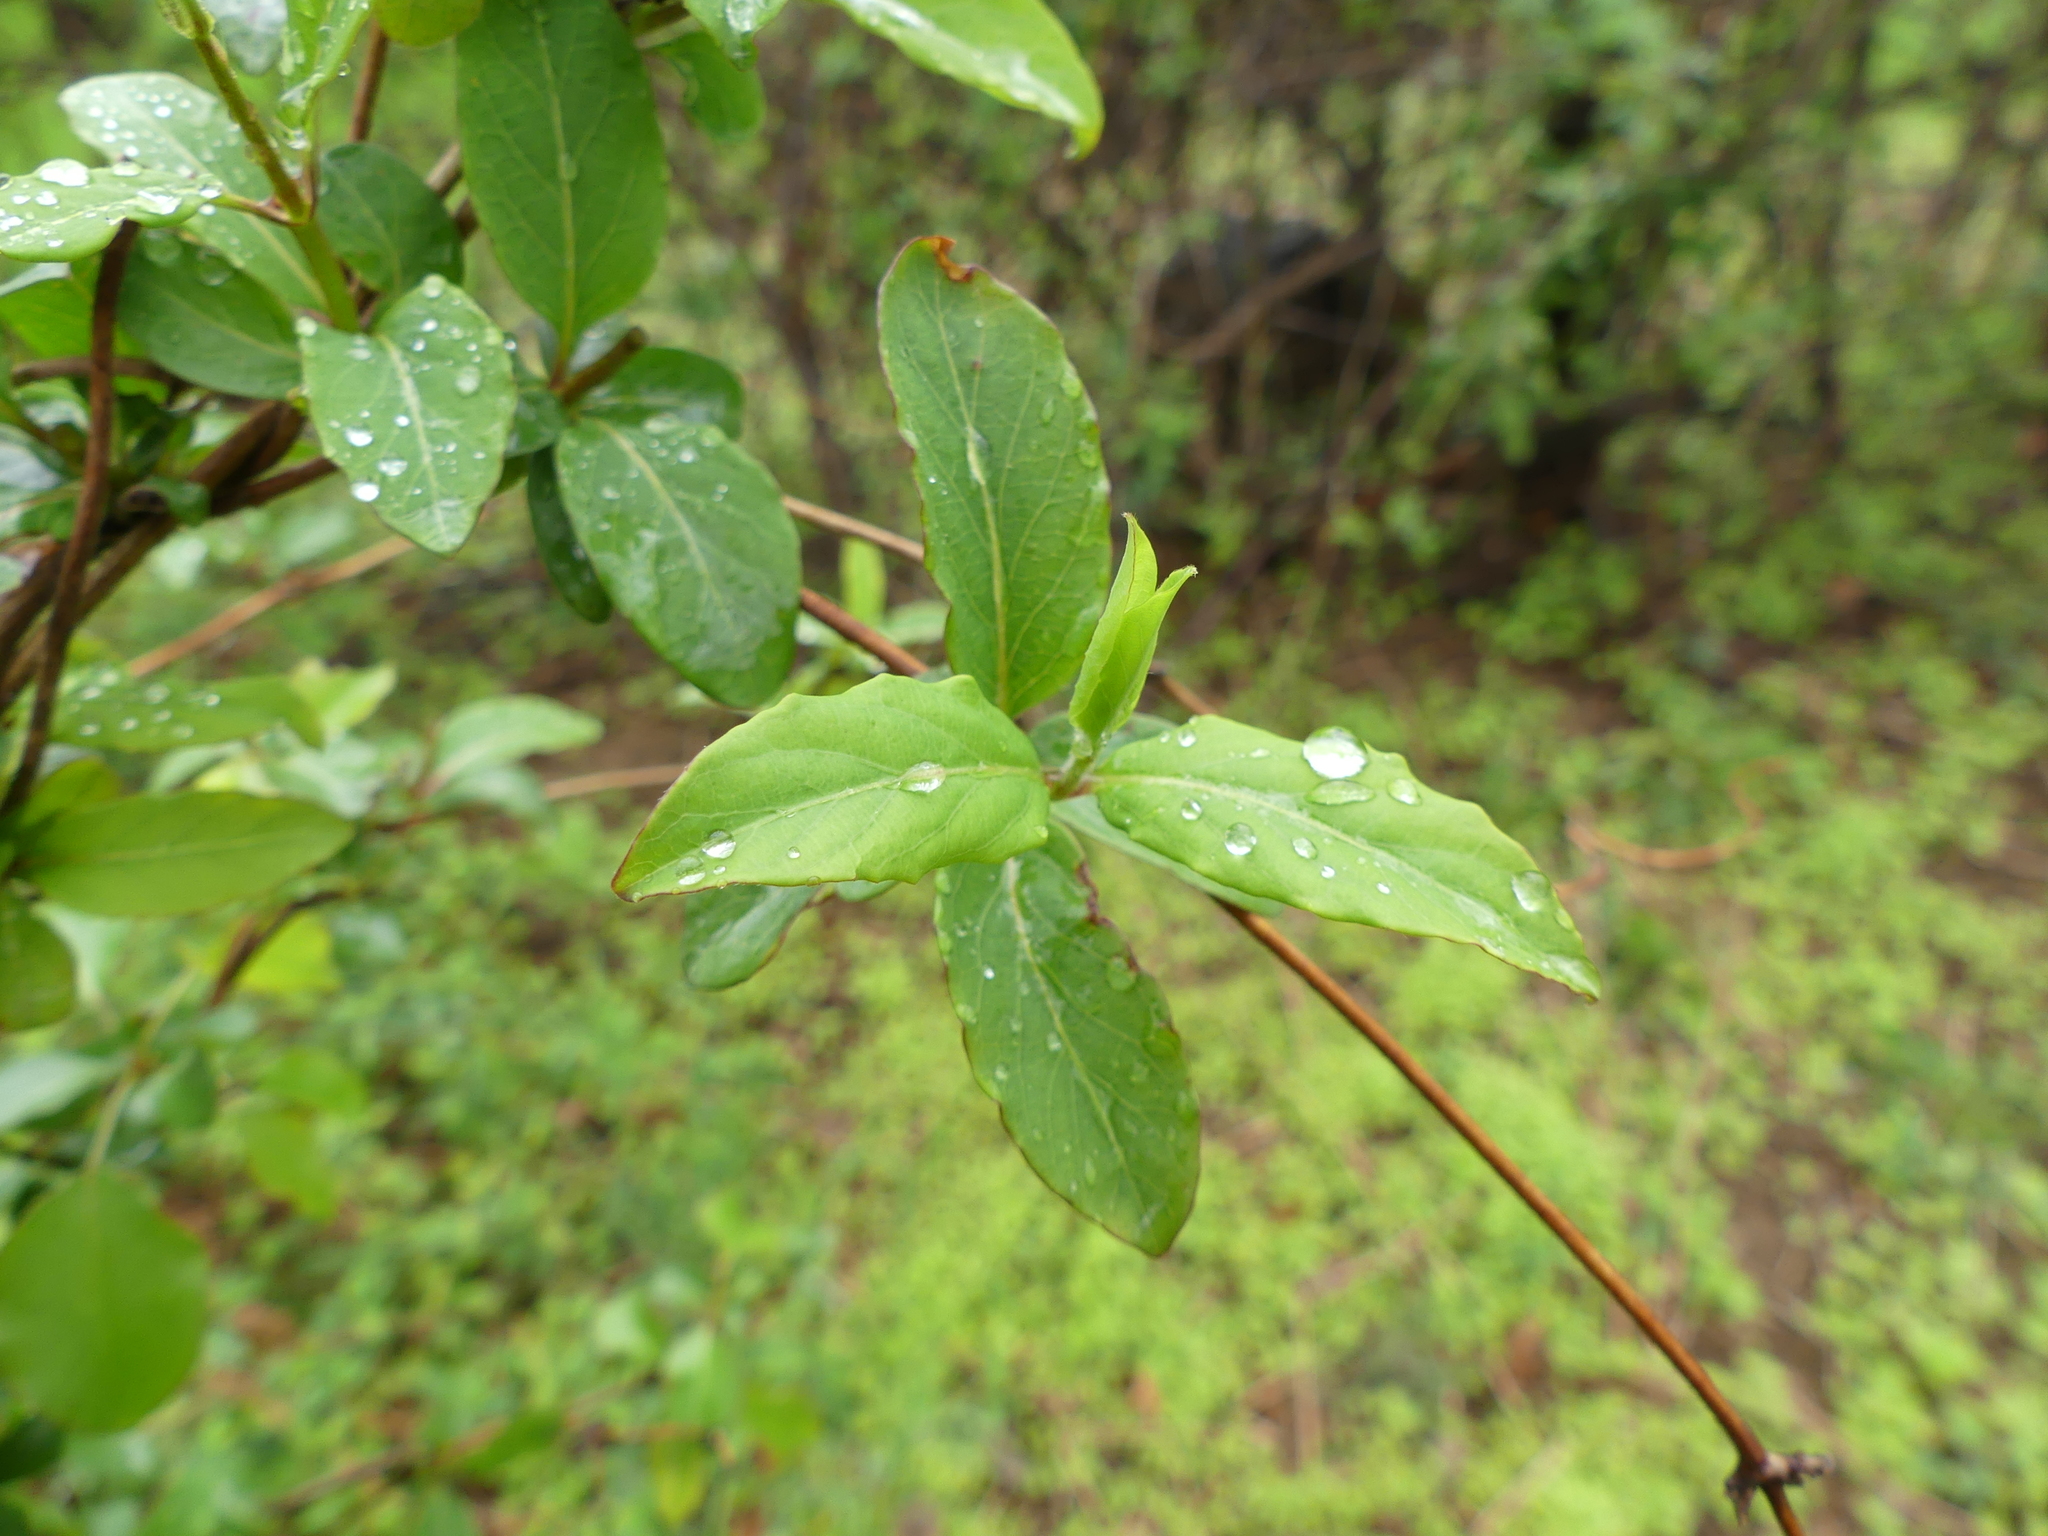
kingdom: Plantae
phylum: Tracheophyta
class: Magnoliopsida
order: Dipsacales
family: Caprifoliaceae
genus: Lonicera
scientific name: Lonicera japonica
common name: Japanese honeysuckle
